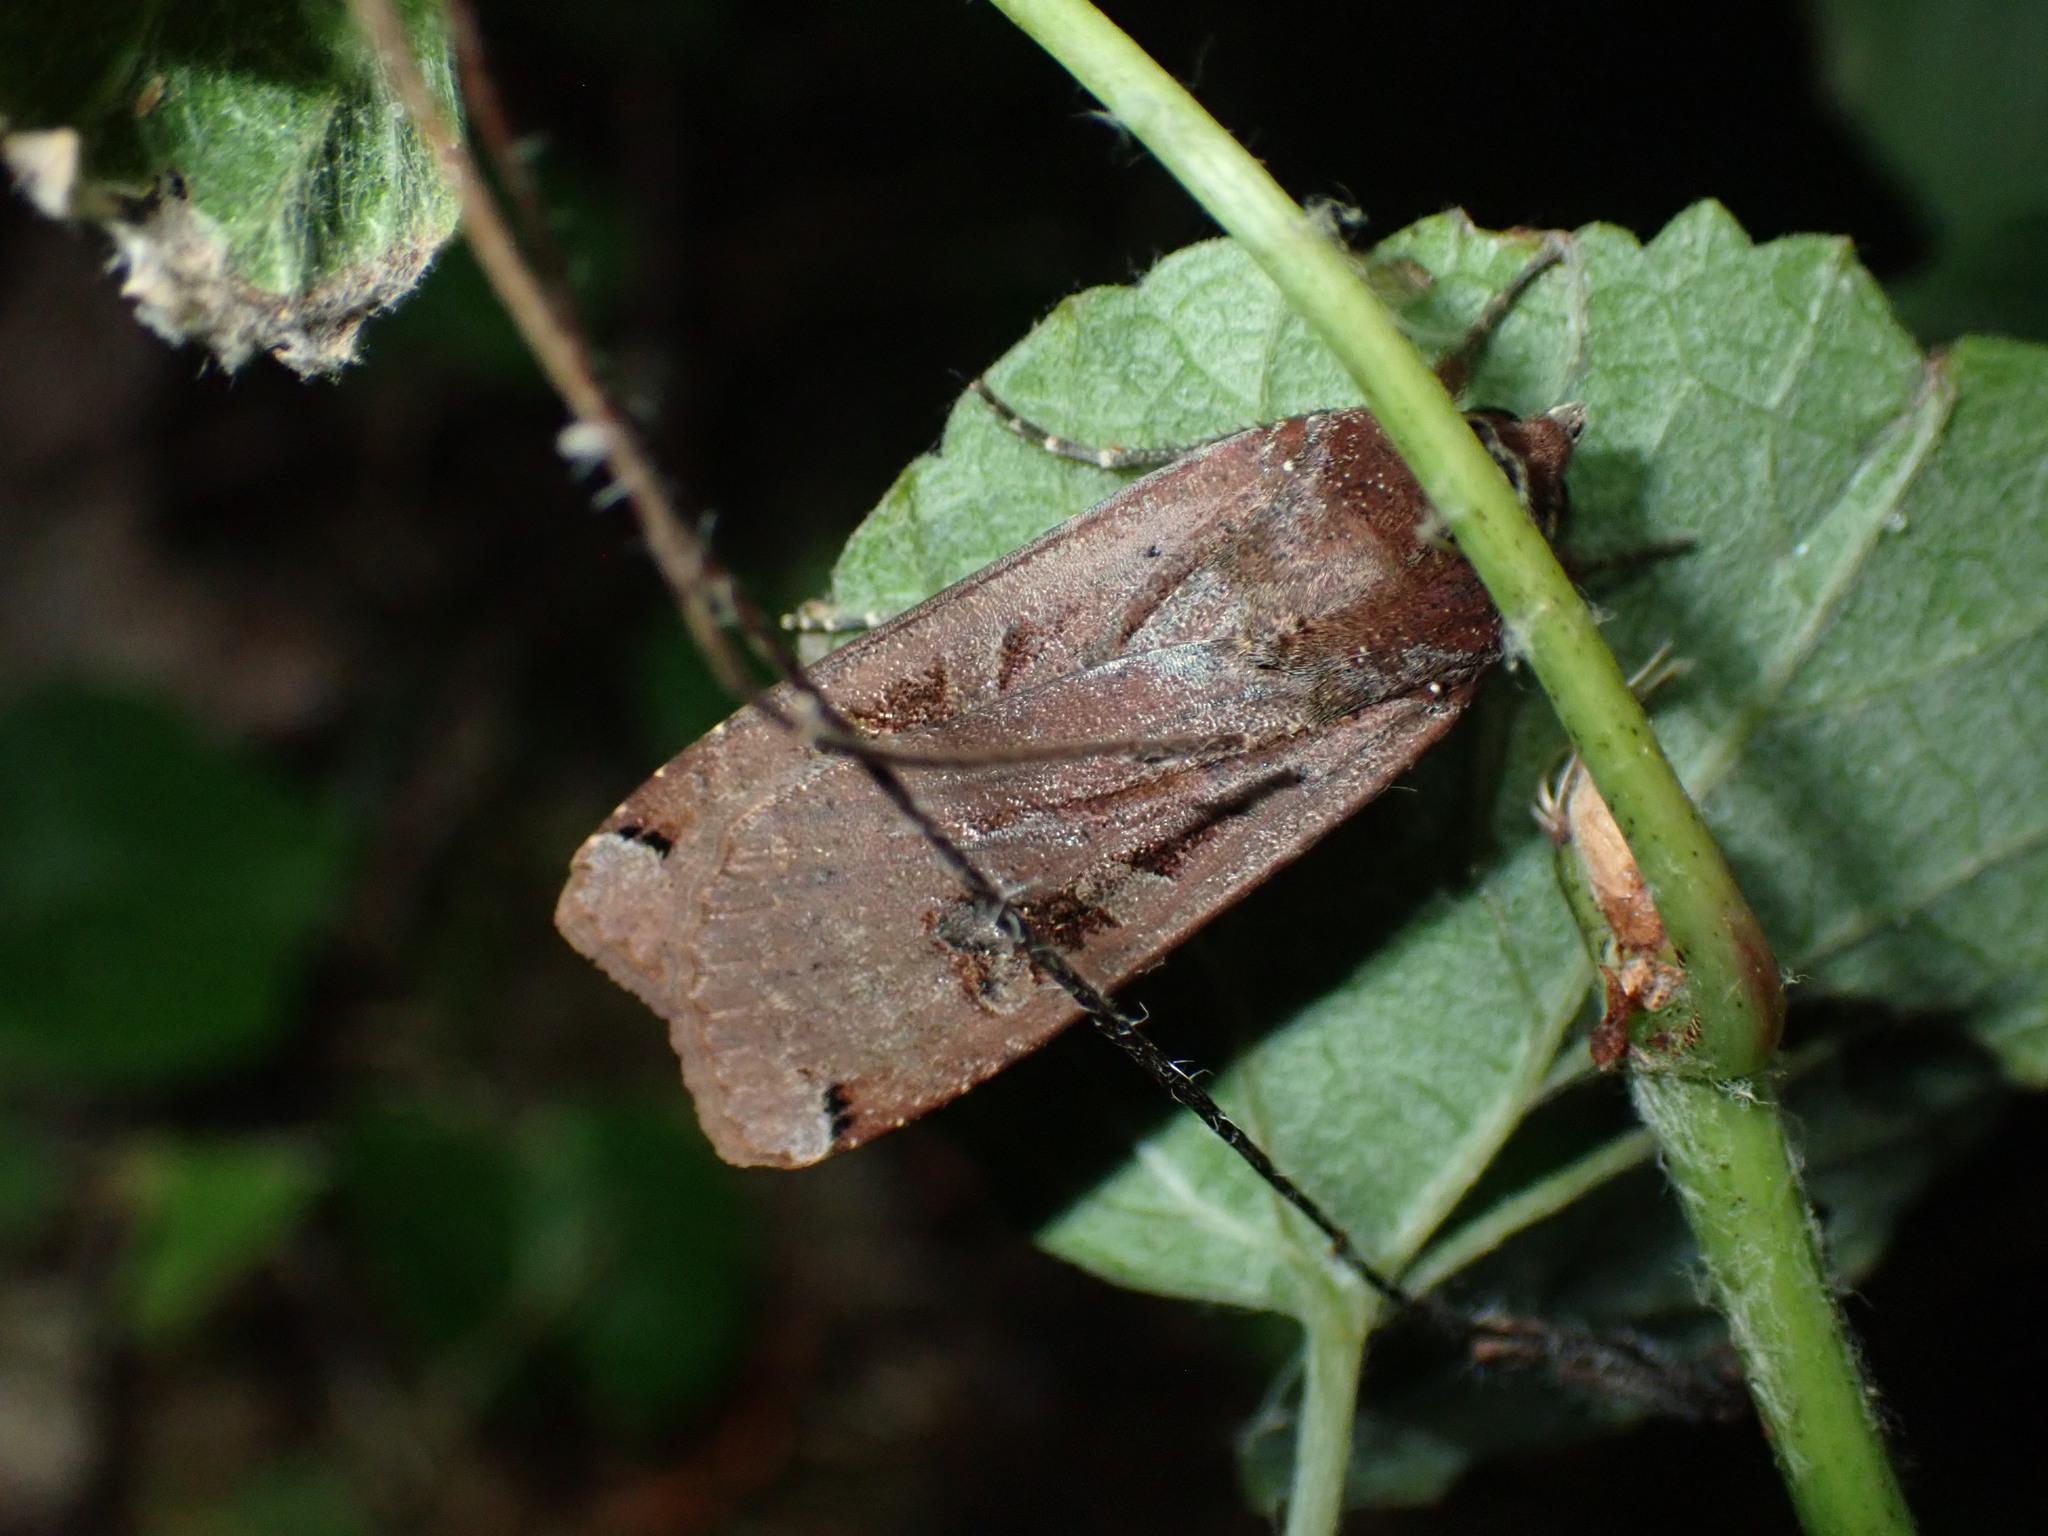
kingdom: Animalia
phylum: Arthropoda
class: Insecta
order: Lepidoptera
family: Noctuidae
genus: Noctua
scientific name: Noctua pronuba
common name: Large yellow underwing
